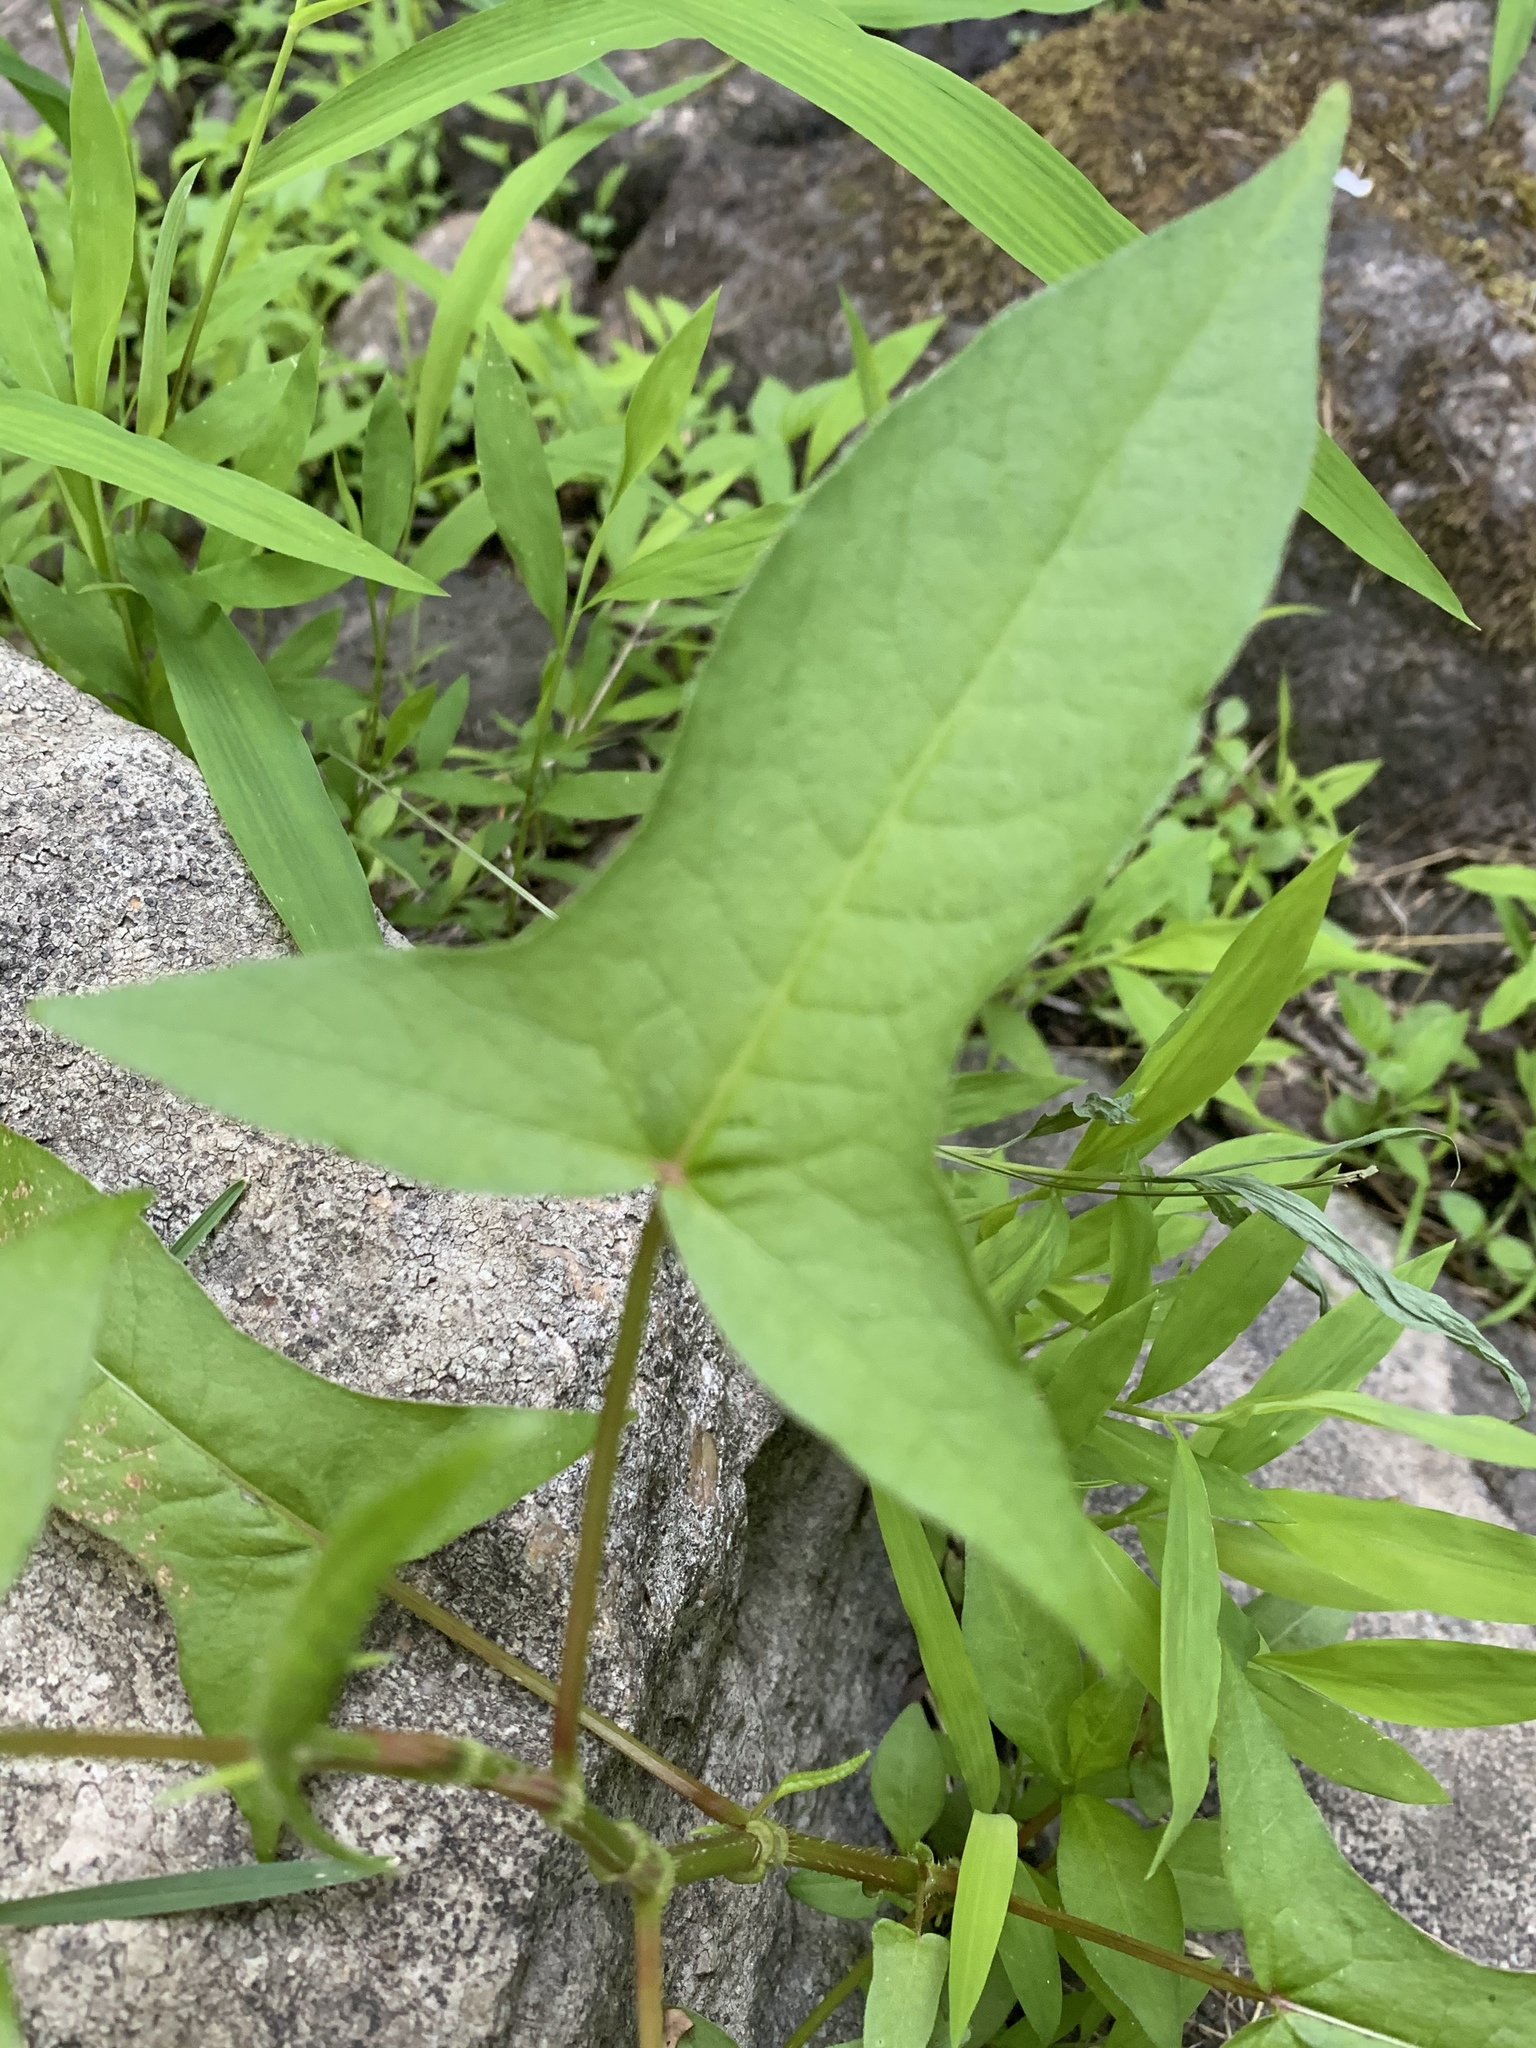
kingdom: Plantae
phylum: Tracheophyta
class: Magnoliopsida
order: Caryophyllales
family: Polygonaceae
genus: Persicaria
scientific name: Persicaria arifolia
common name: Halberd-leaved tear-thumb
